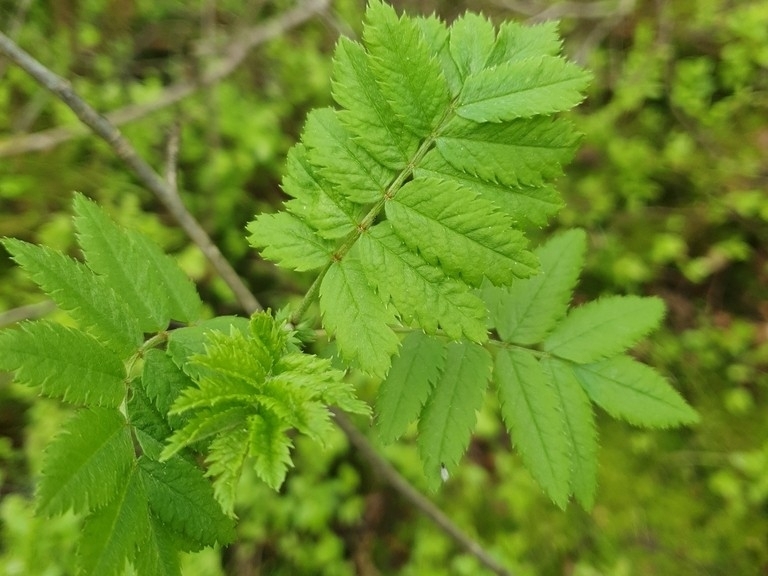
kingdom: Plantae
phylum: Tracheophyta
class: Magnoliopsida
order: Rosales
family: Rosaceae
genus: Sorbus
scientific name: Sorbus aucuparia
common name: Rowan
